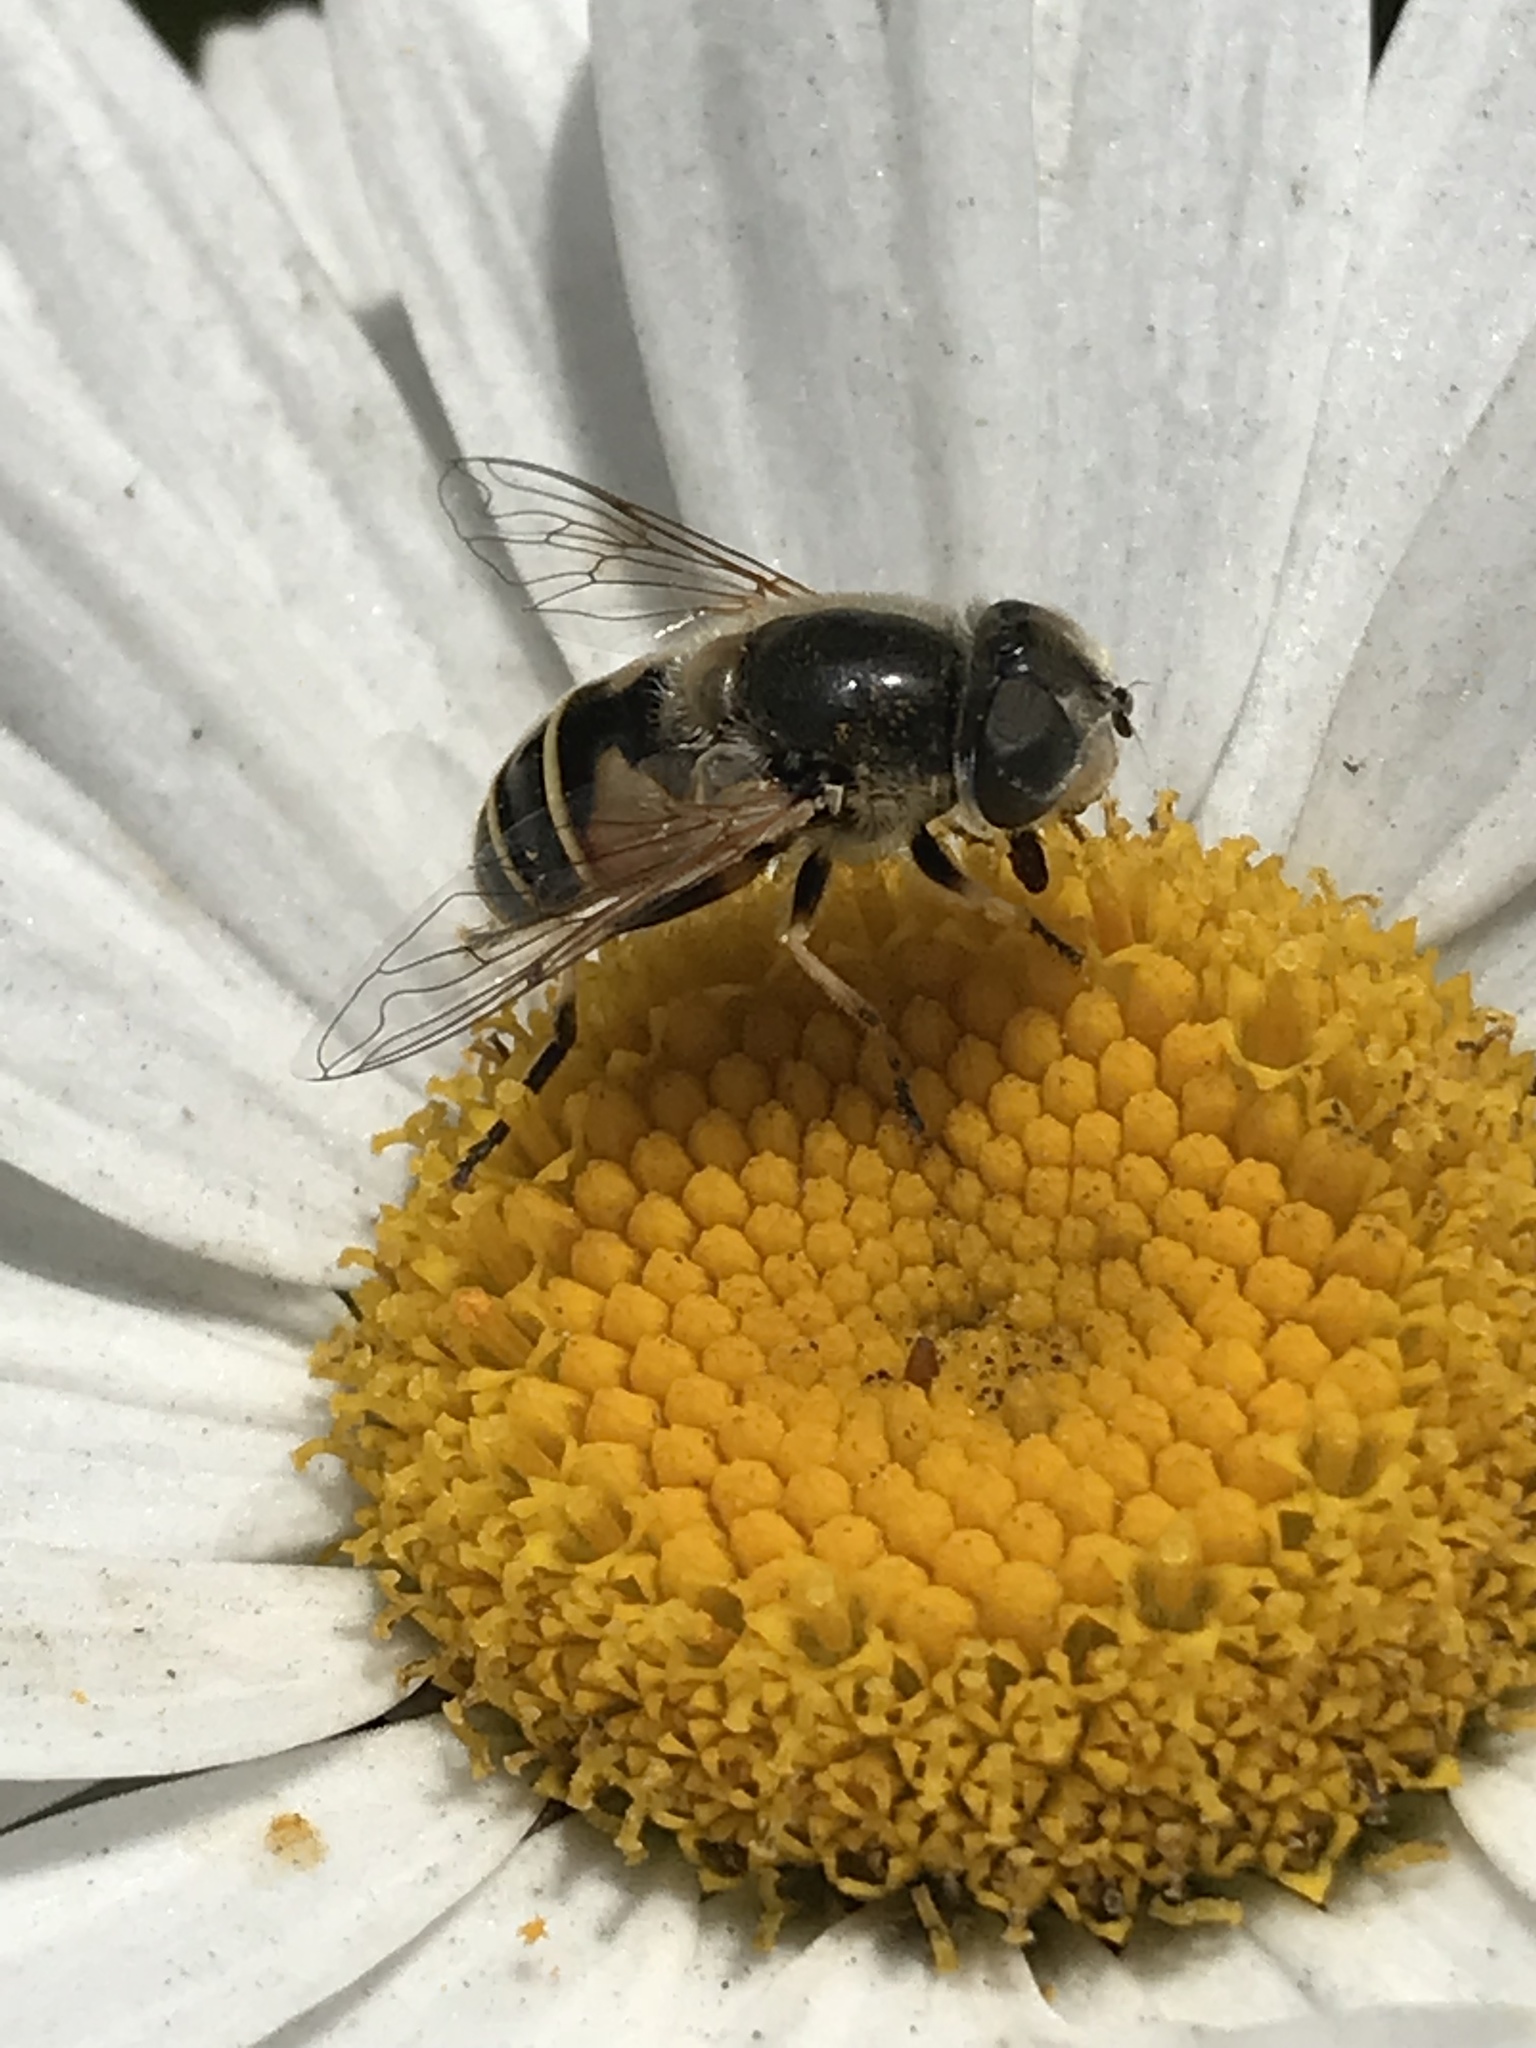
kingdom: Animalia
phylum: Arthropoda
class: Insecta
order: Diptera
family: Syrphidae
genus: Eristalis
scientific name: Eristalis hirta
